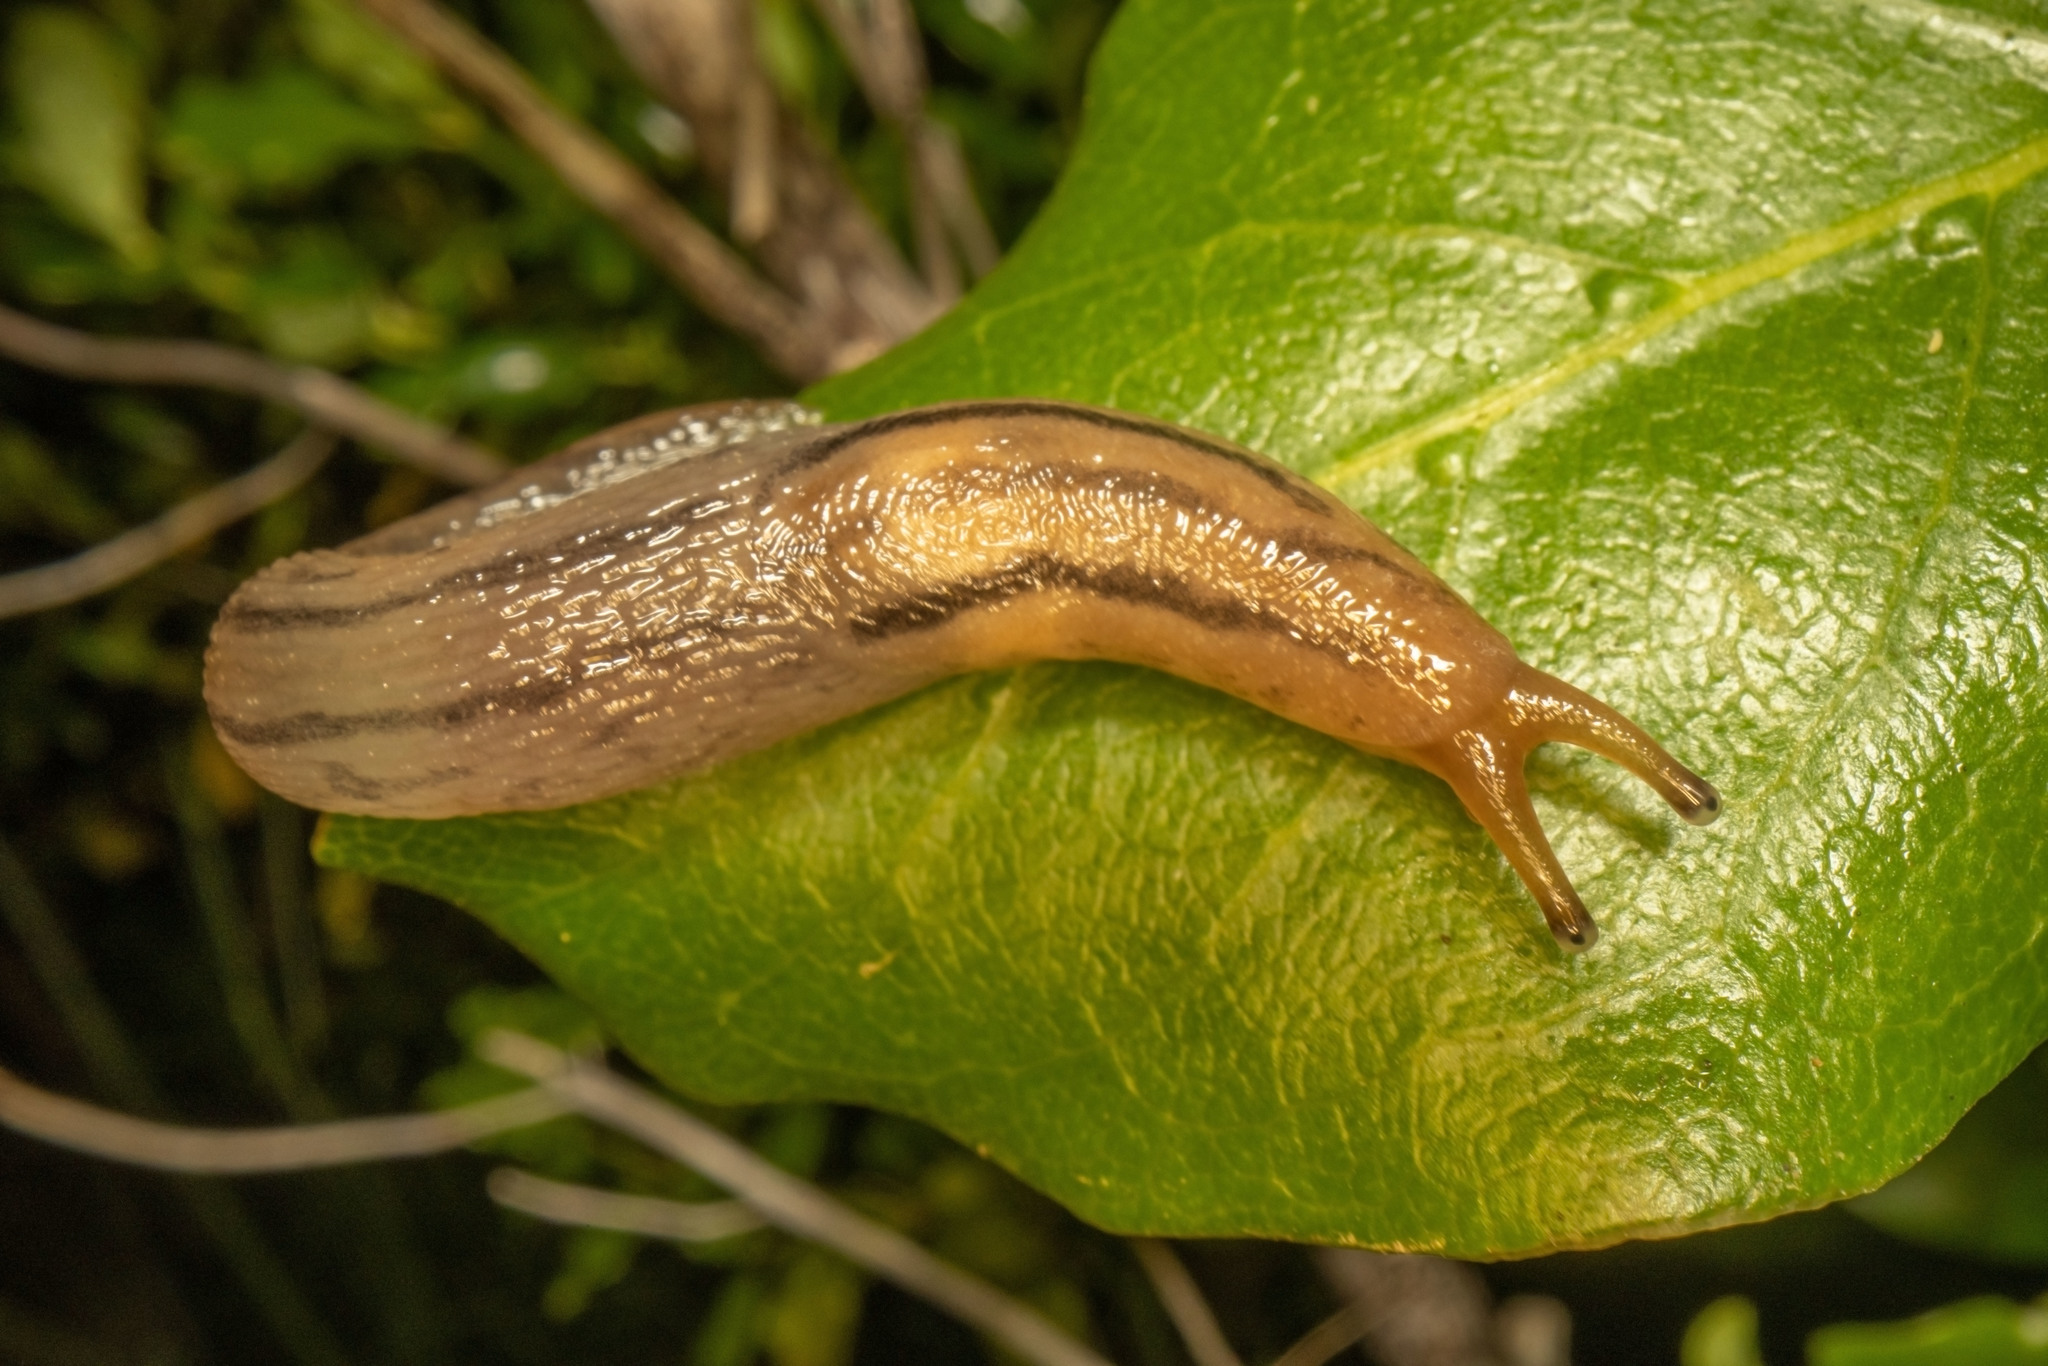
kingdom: Animalia
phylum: Mollusca
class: Gastropoda
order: Stylommatophora
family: Limacidae
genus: Ambigolimax
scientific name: Ambigolimax
